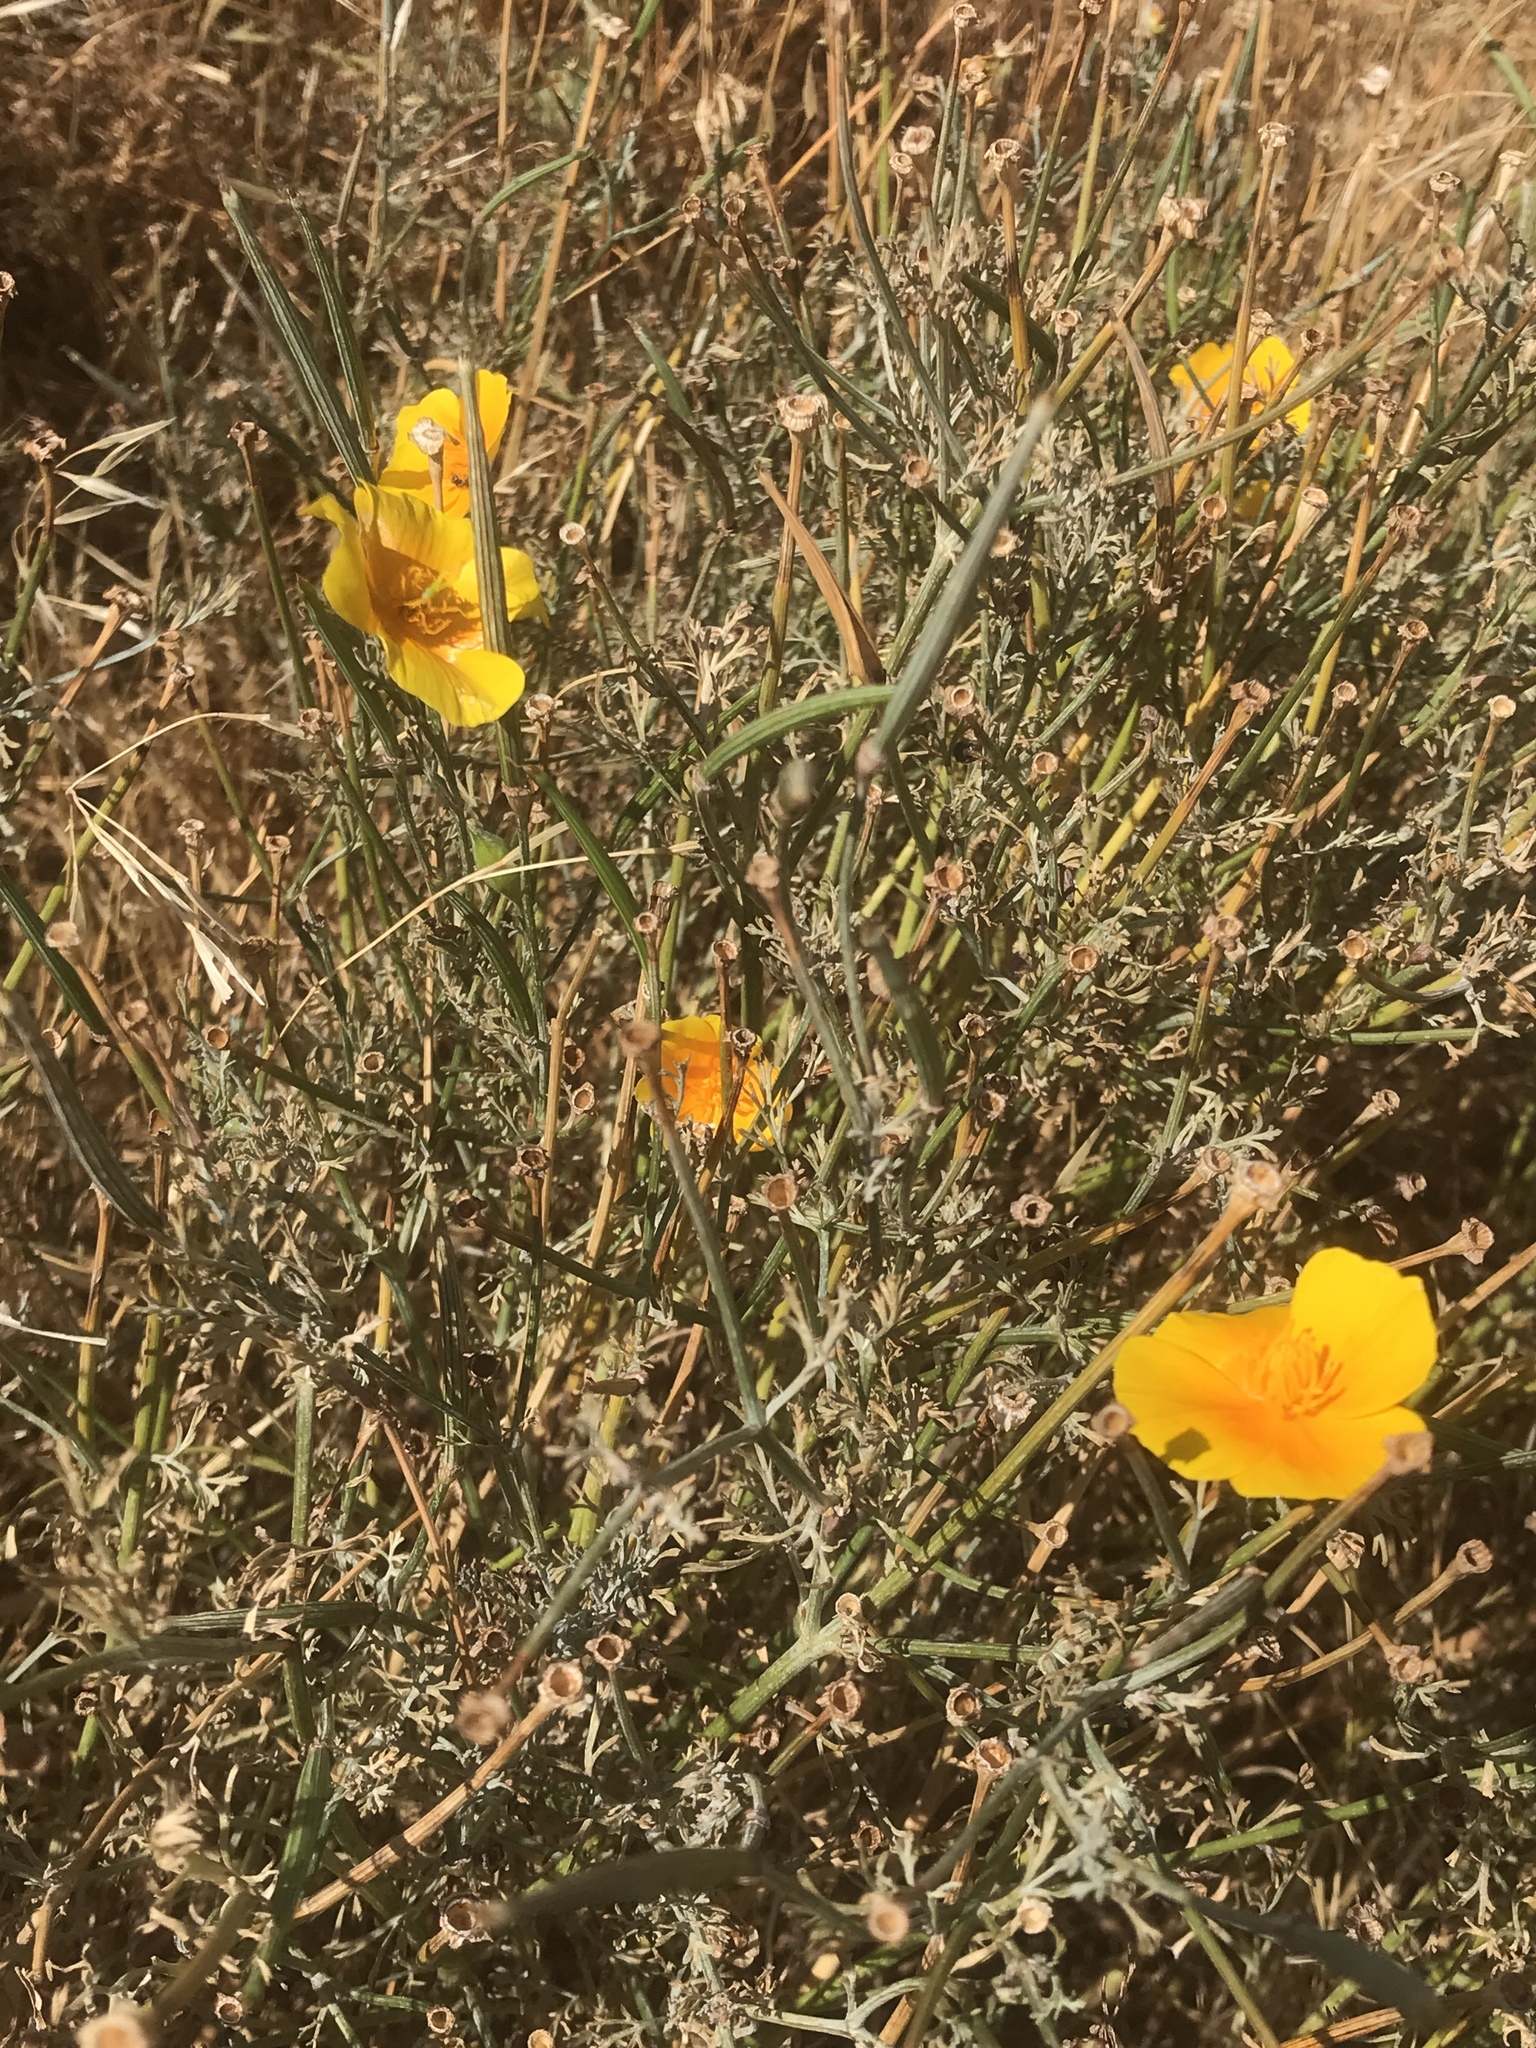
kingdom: Plantae
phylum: Tracheophyta
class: Magnoliopsida
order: Ranunculales
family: Papaveraceae
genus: Eschscholzia
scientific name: Eschscholzia californica
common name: California poppy
